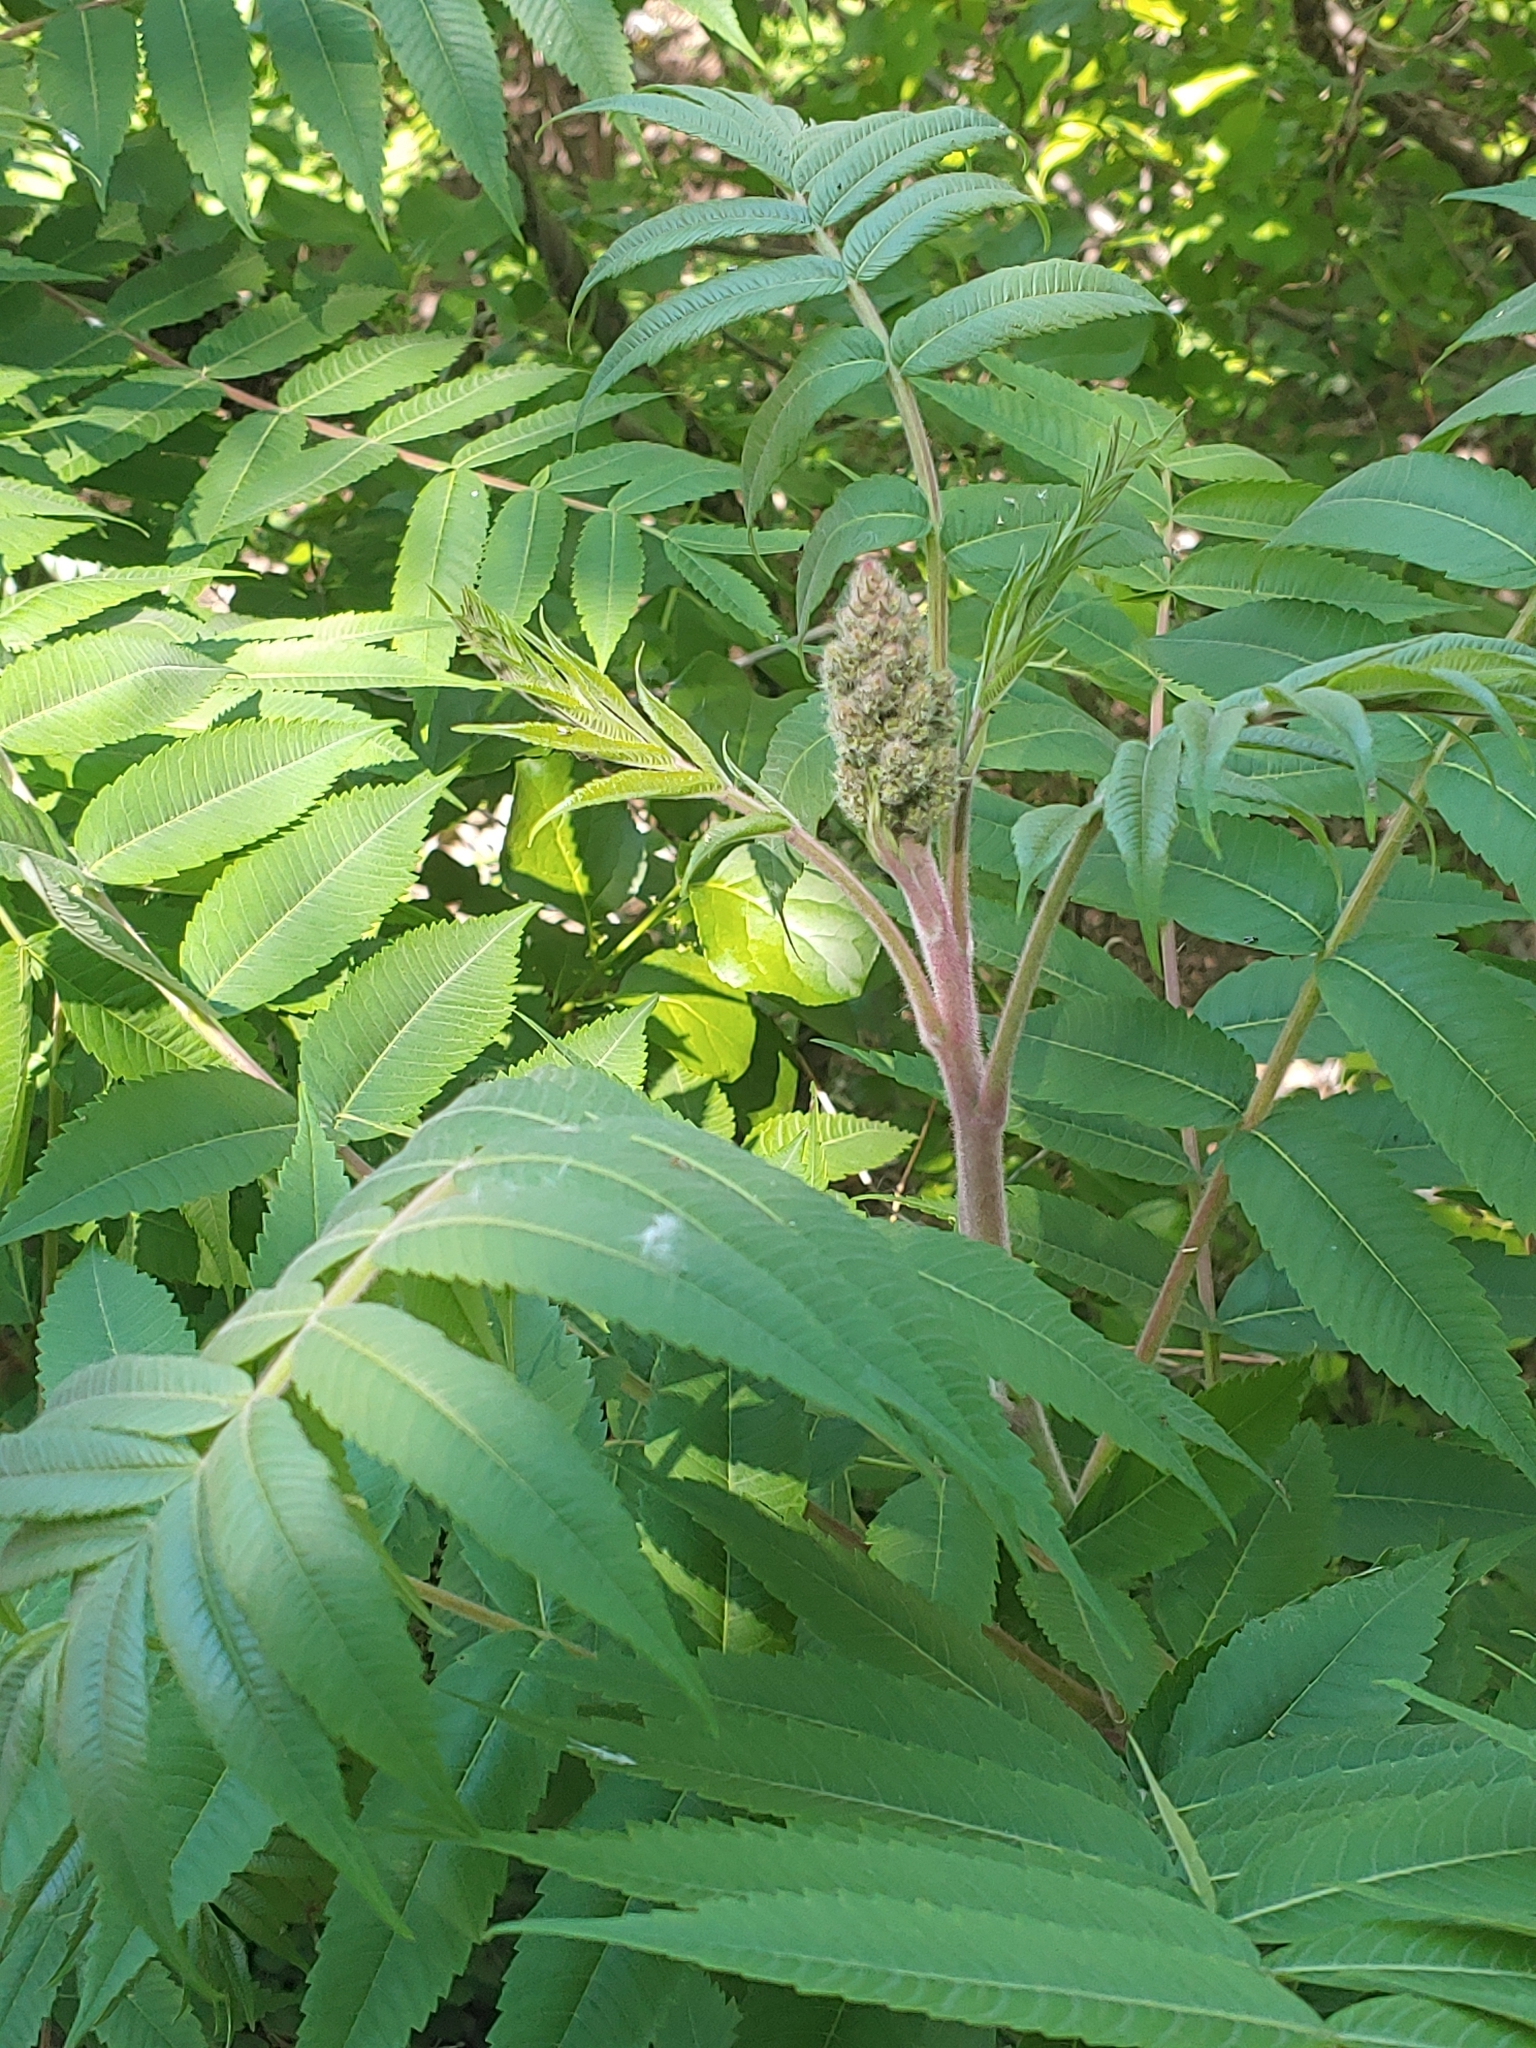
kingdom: Plantae
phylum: Tracheophyta
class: Magnoliopsida
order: Sapindales
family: Anacardiaceae
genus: Rhus
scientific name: Rhus typhina
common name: Staghorn sumac
